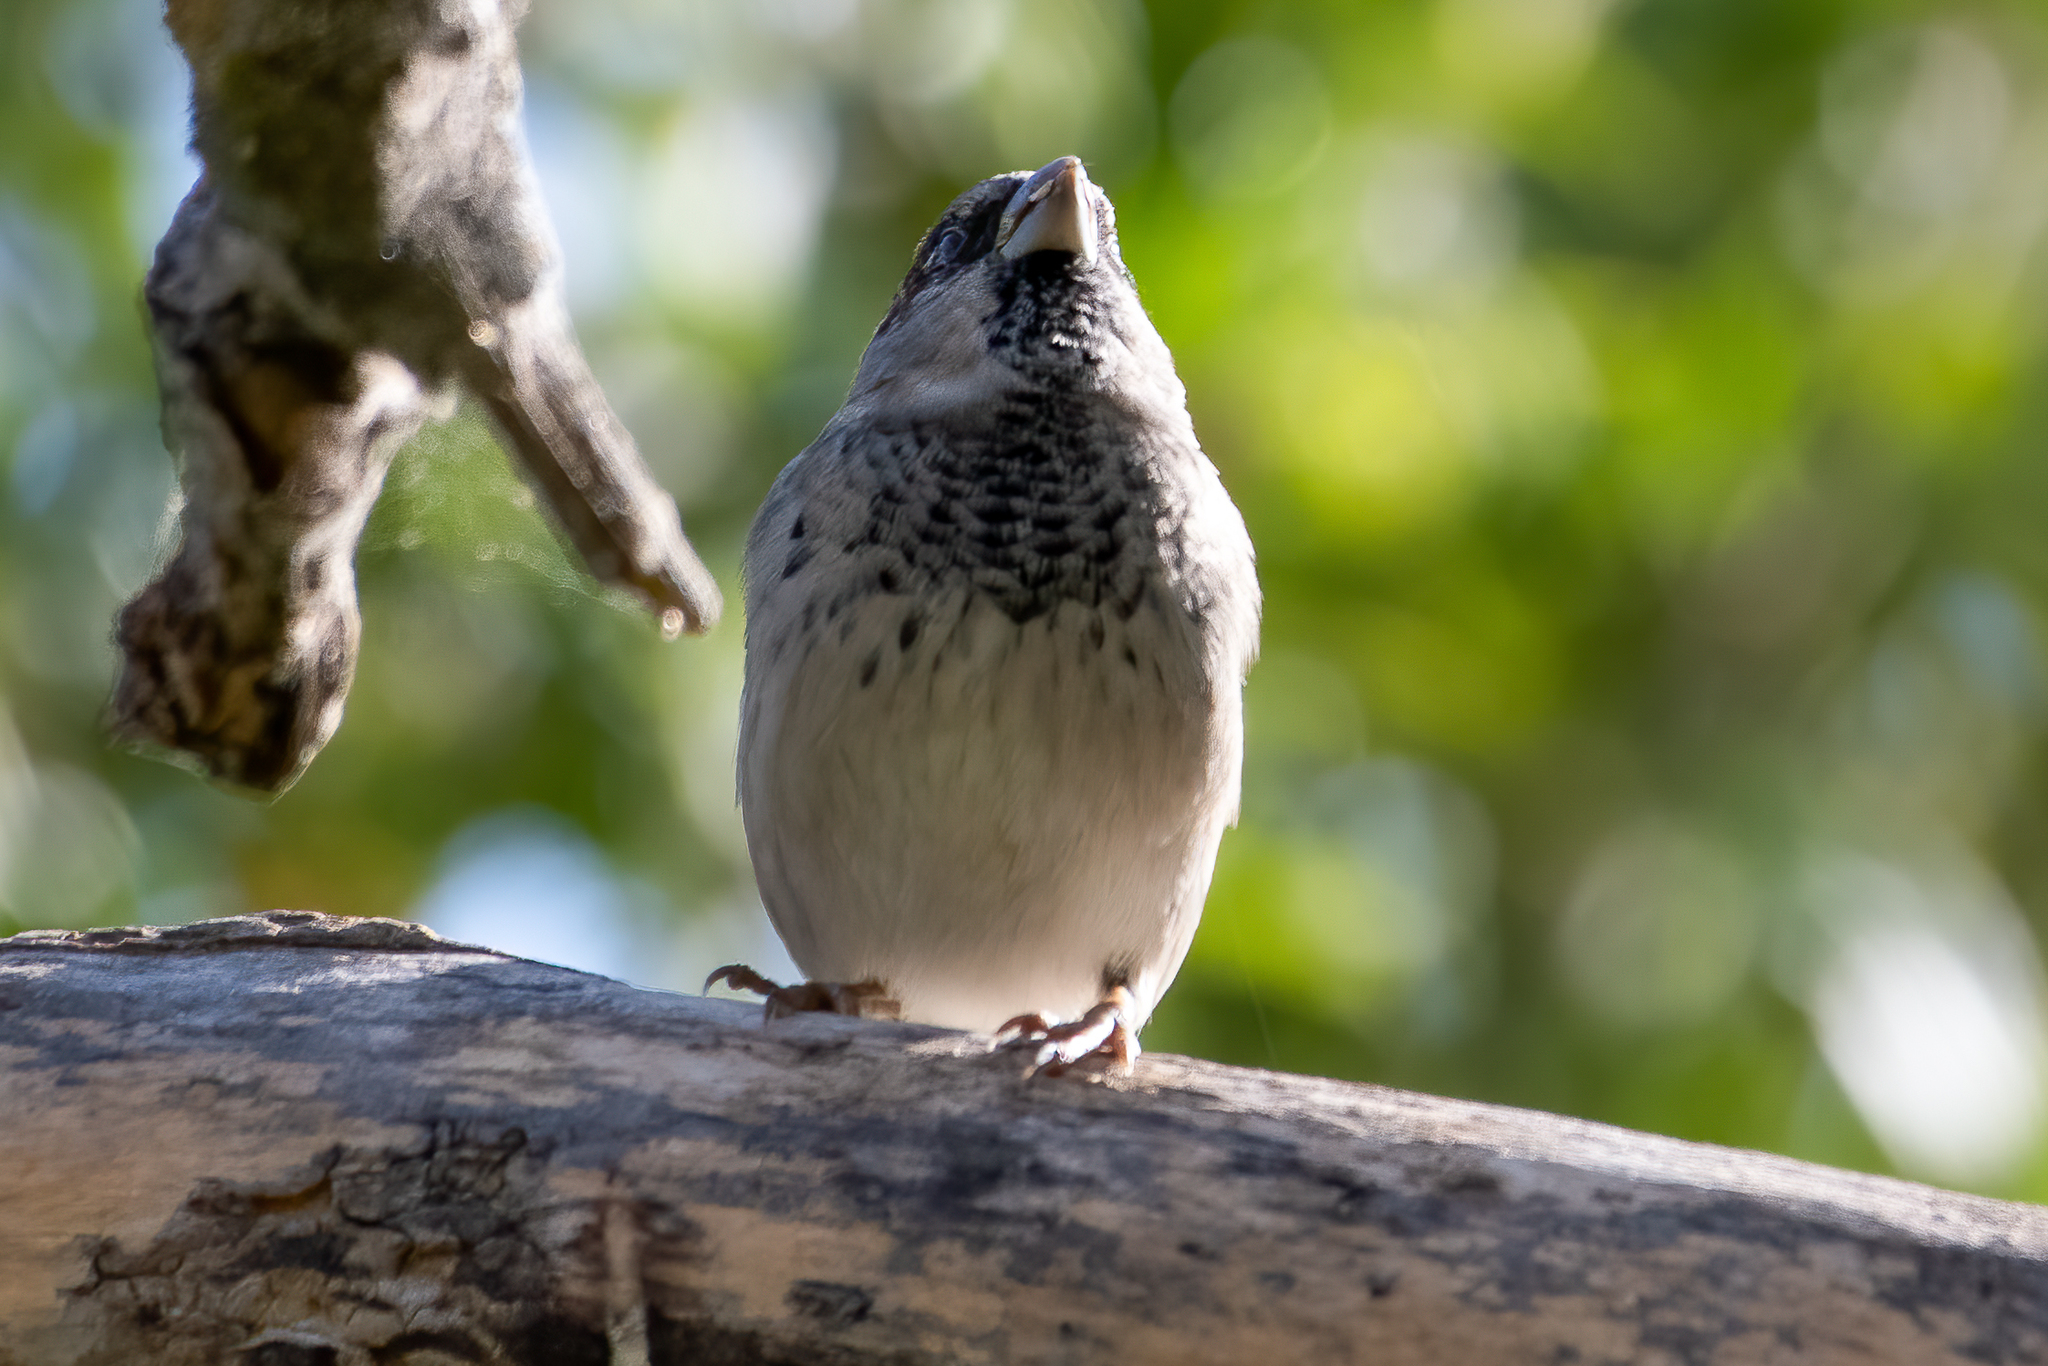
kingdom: Animalia
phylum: Chordata
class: Aves
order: Passeriformes
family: Passeridae
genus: Passer
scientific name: Passer domesticus
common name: House sparrow
